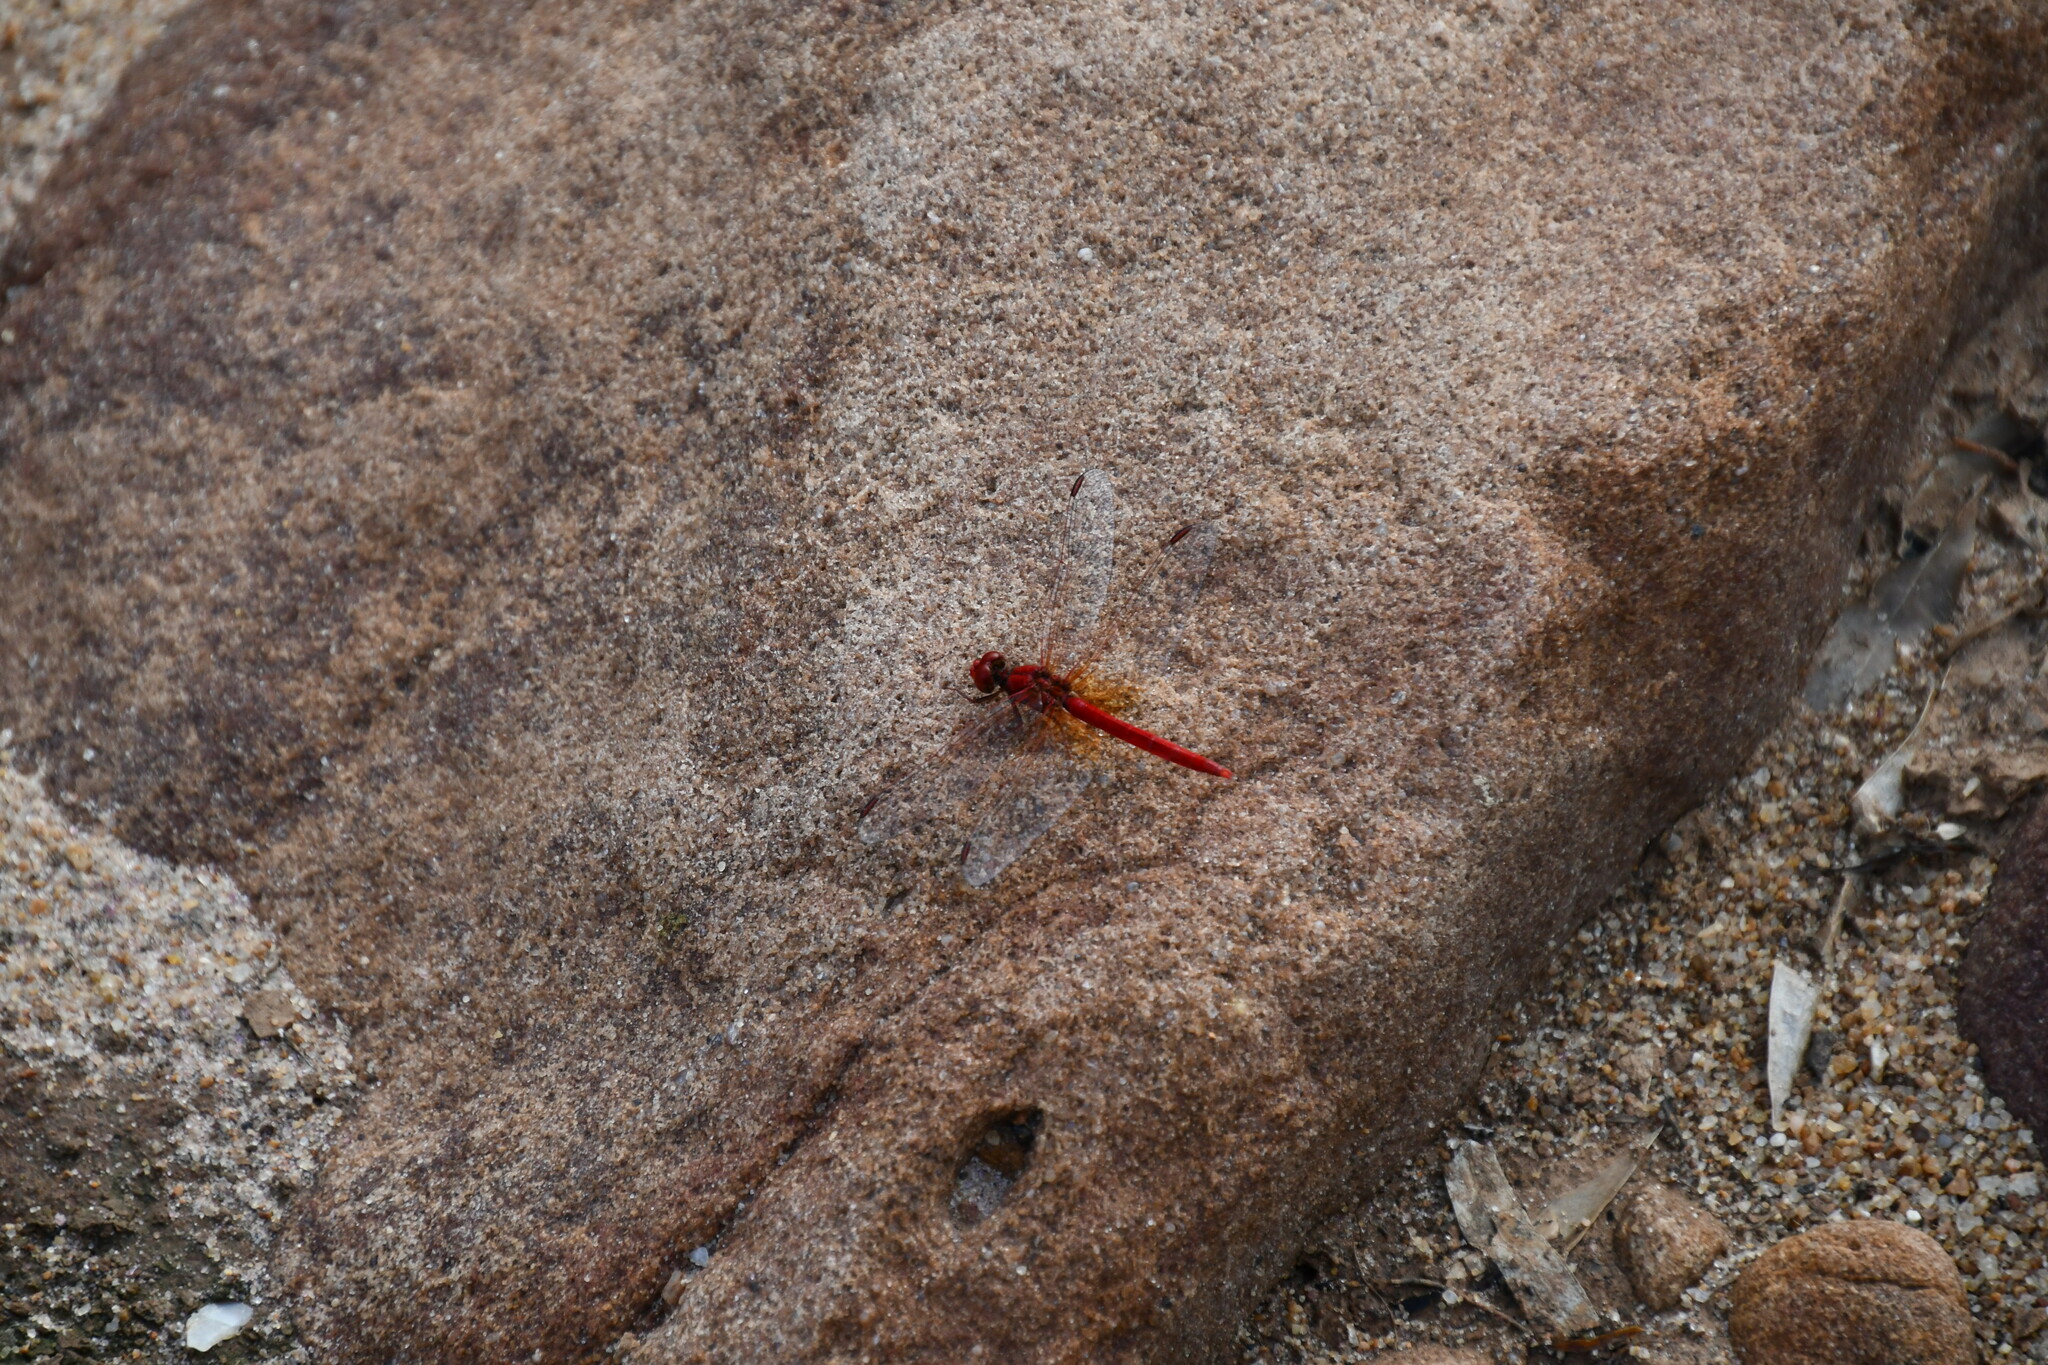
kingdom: Animalia
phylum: Arthropoda
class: Insecta
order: Odonata
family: Libellulidae
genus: Diplacodes
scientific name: Diplacodes haematodes
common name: Scarlet percher
